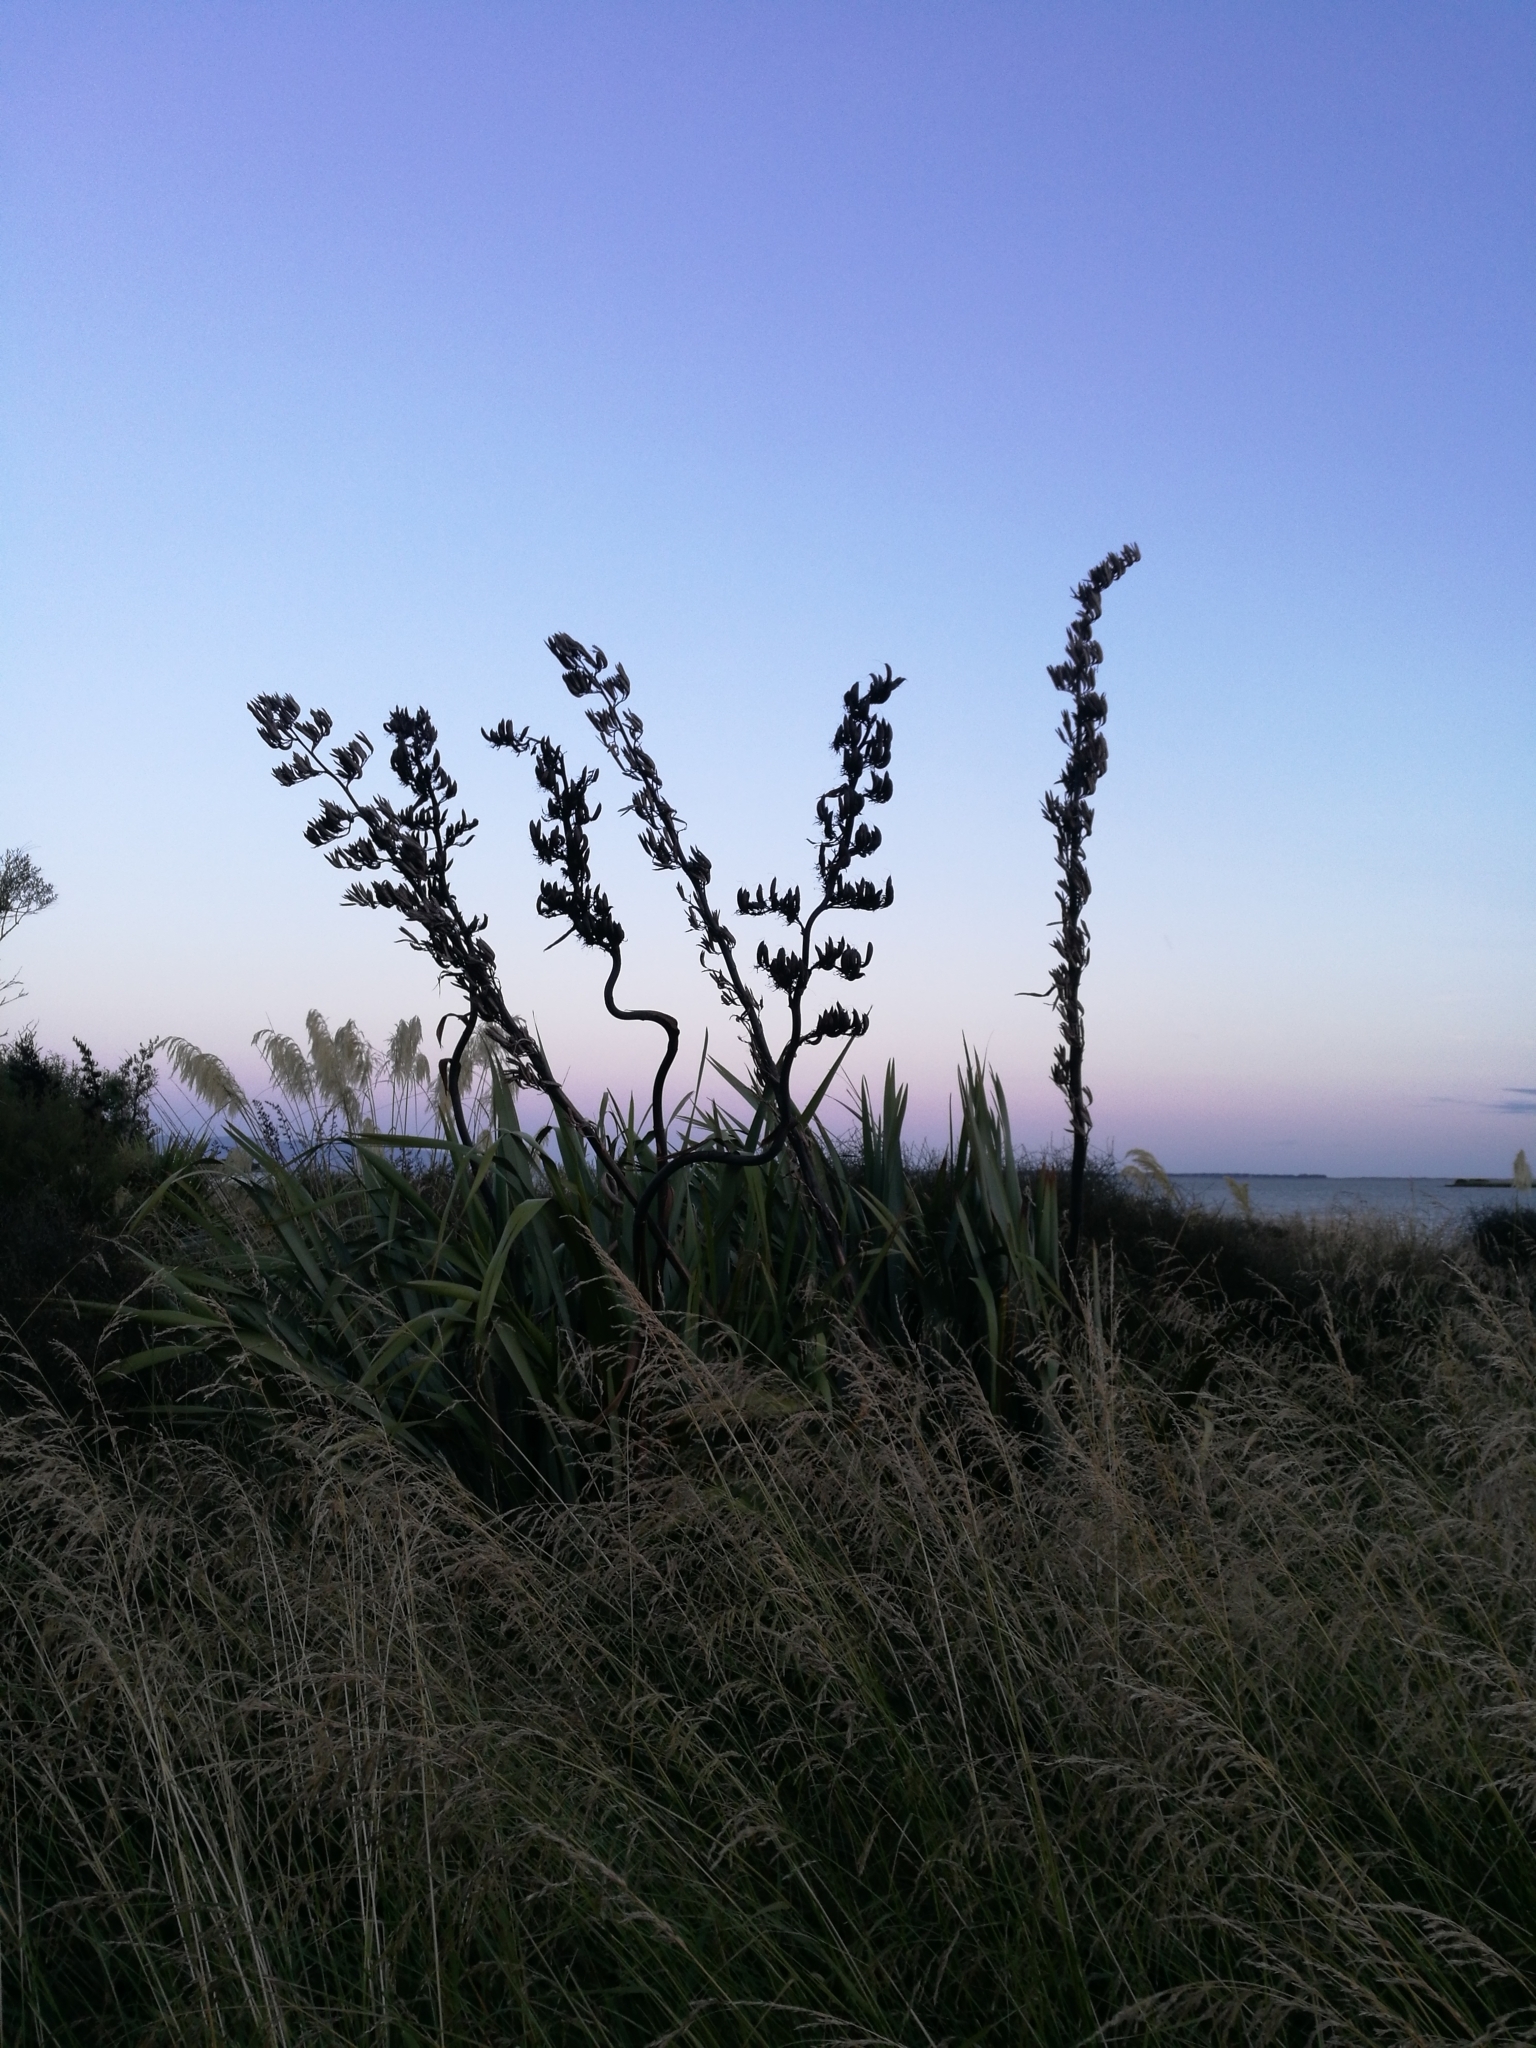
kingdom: Plantae
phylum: Tracheophyta
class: Liliopsida
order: Asparagales
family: Asphodelaceae
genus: Phormium
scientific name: Phormium tenax
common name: New zealand flax
